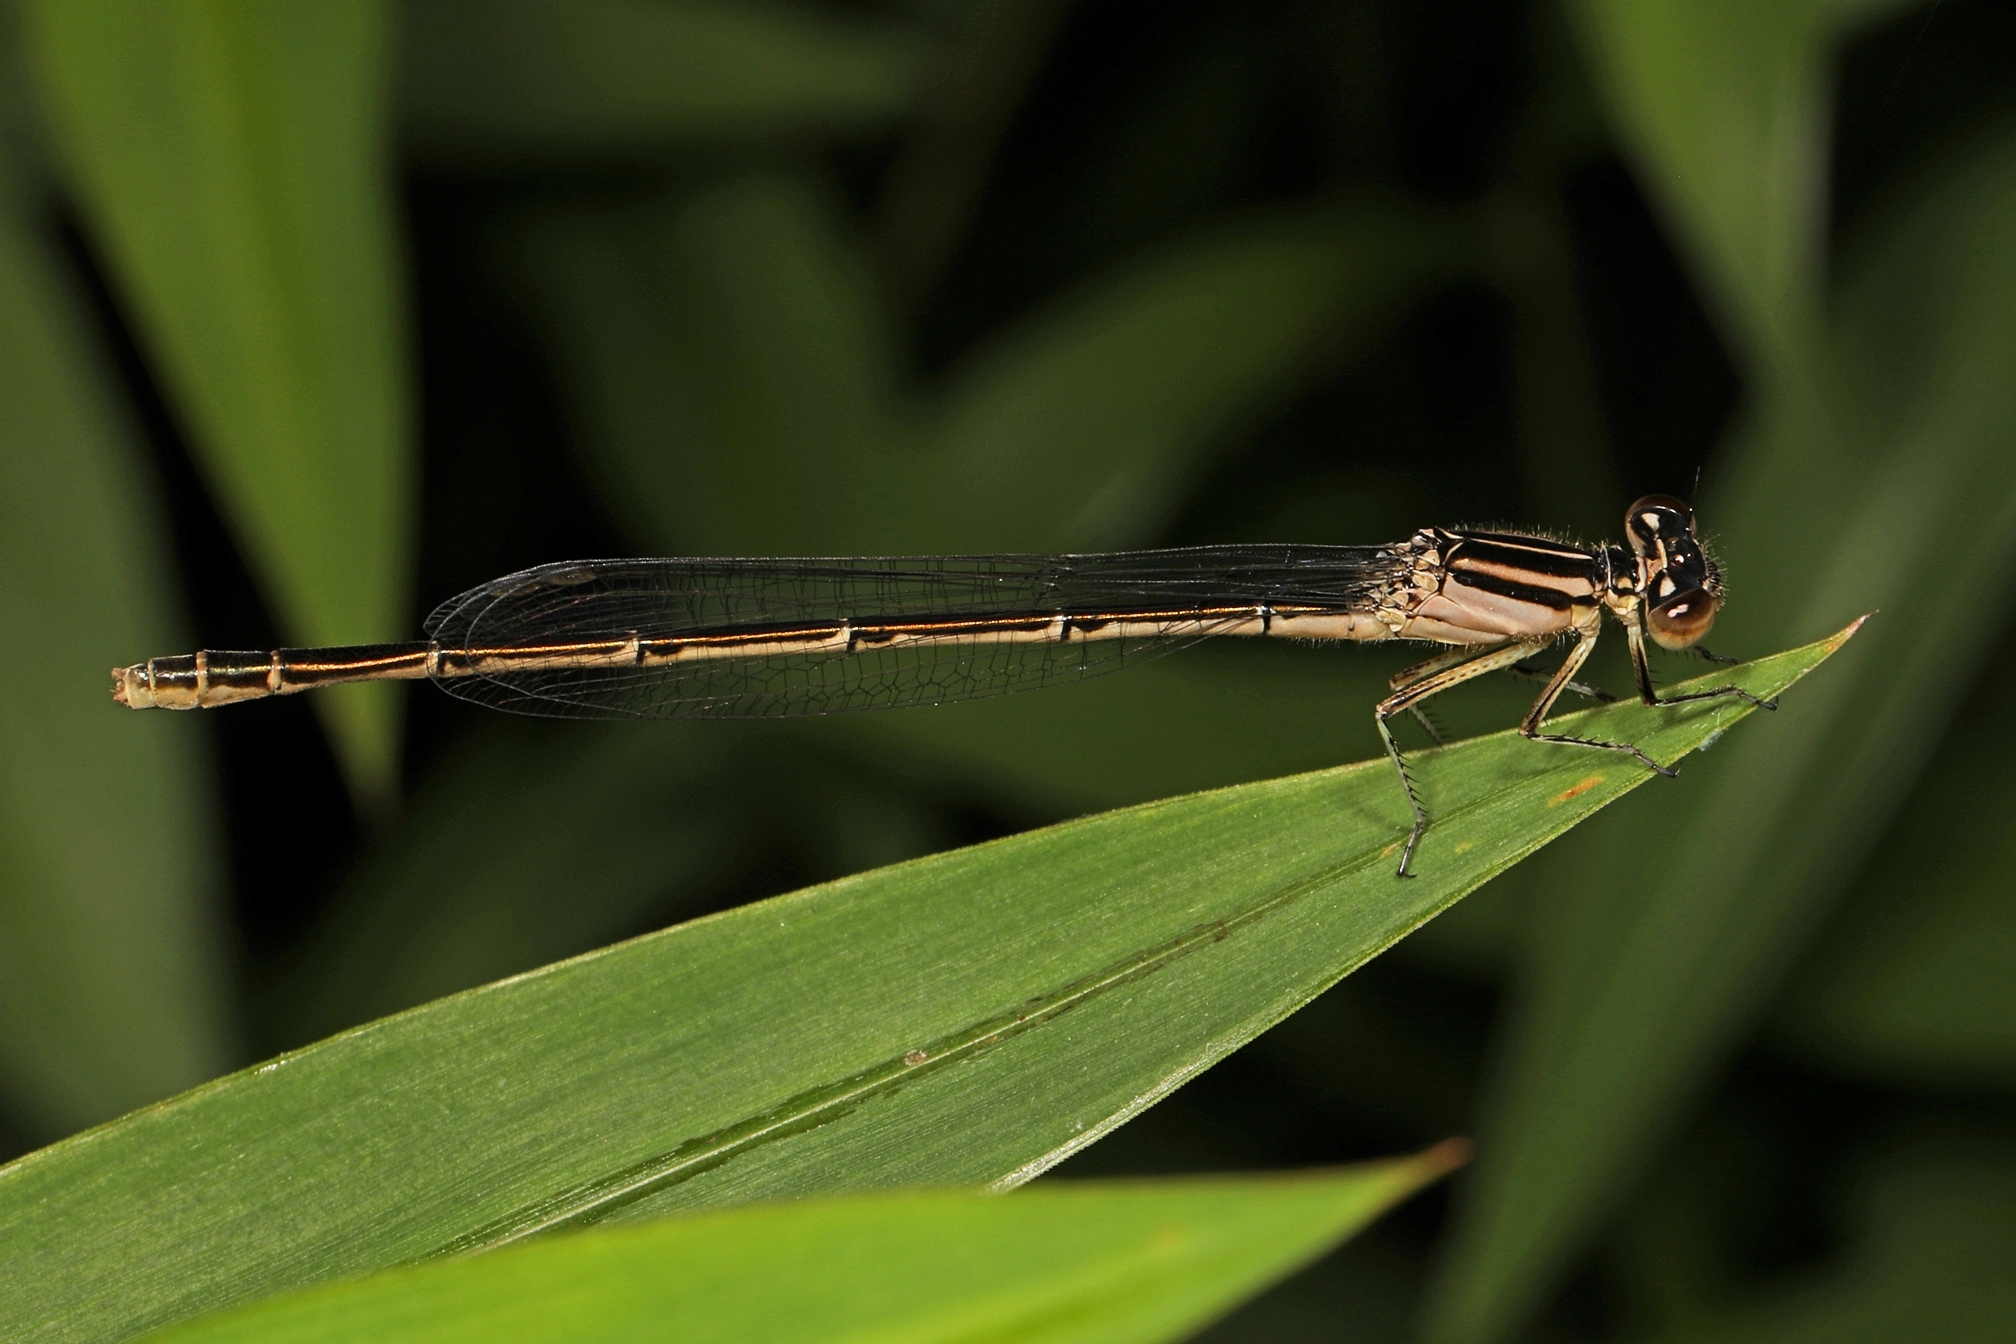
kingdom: Animalia
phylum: Arthropoda
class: Insecta
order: Odonata
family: Coenagrionidae
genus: Enallagma
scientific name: Enallagma durum
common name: Big bluet
